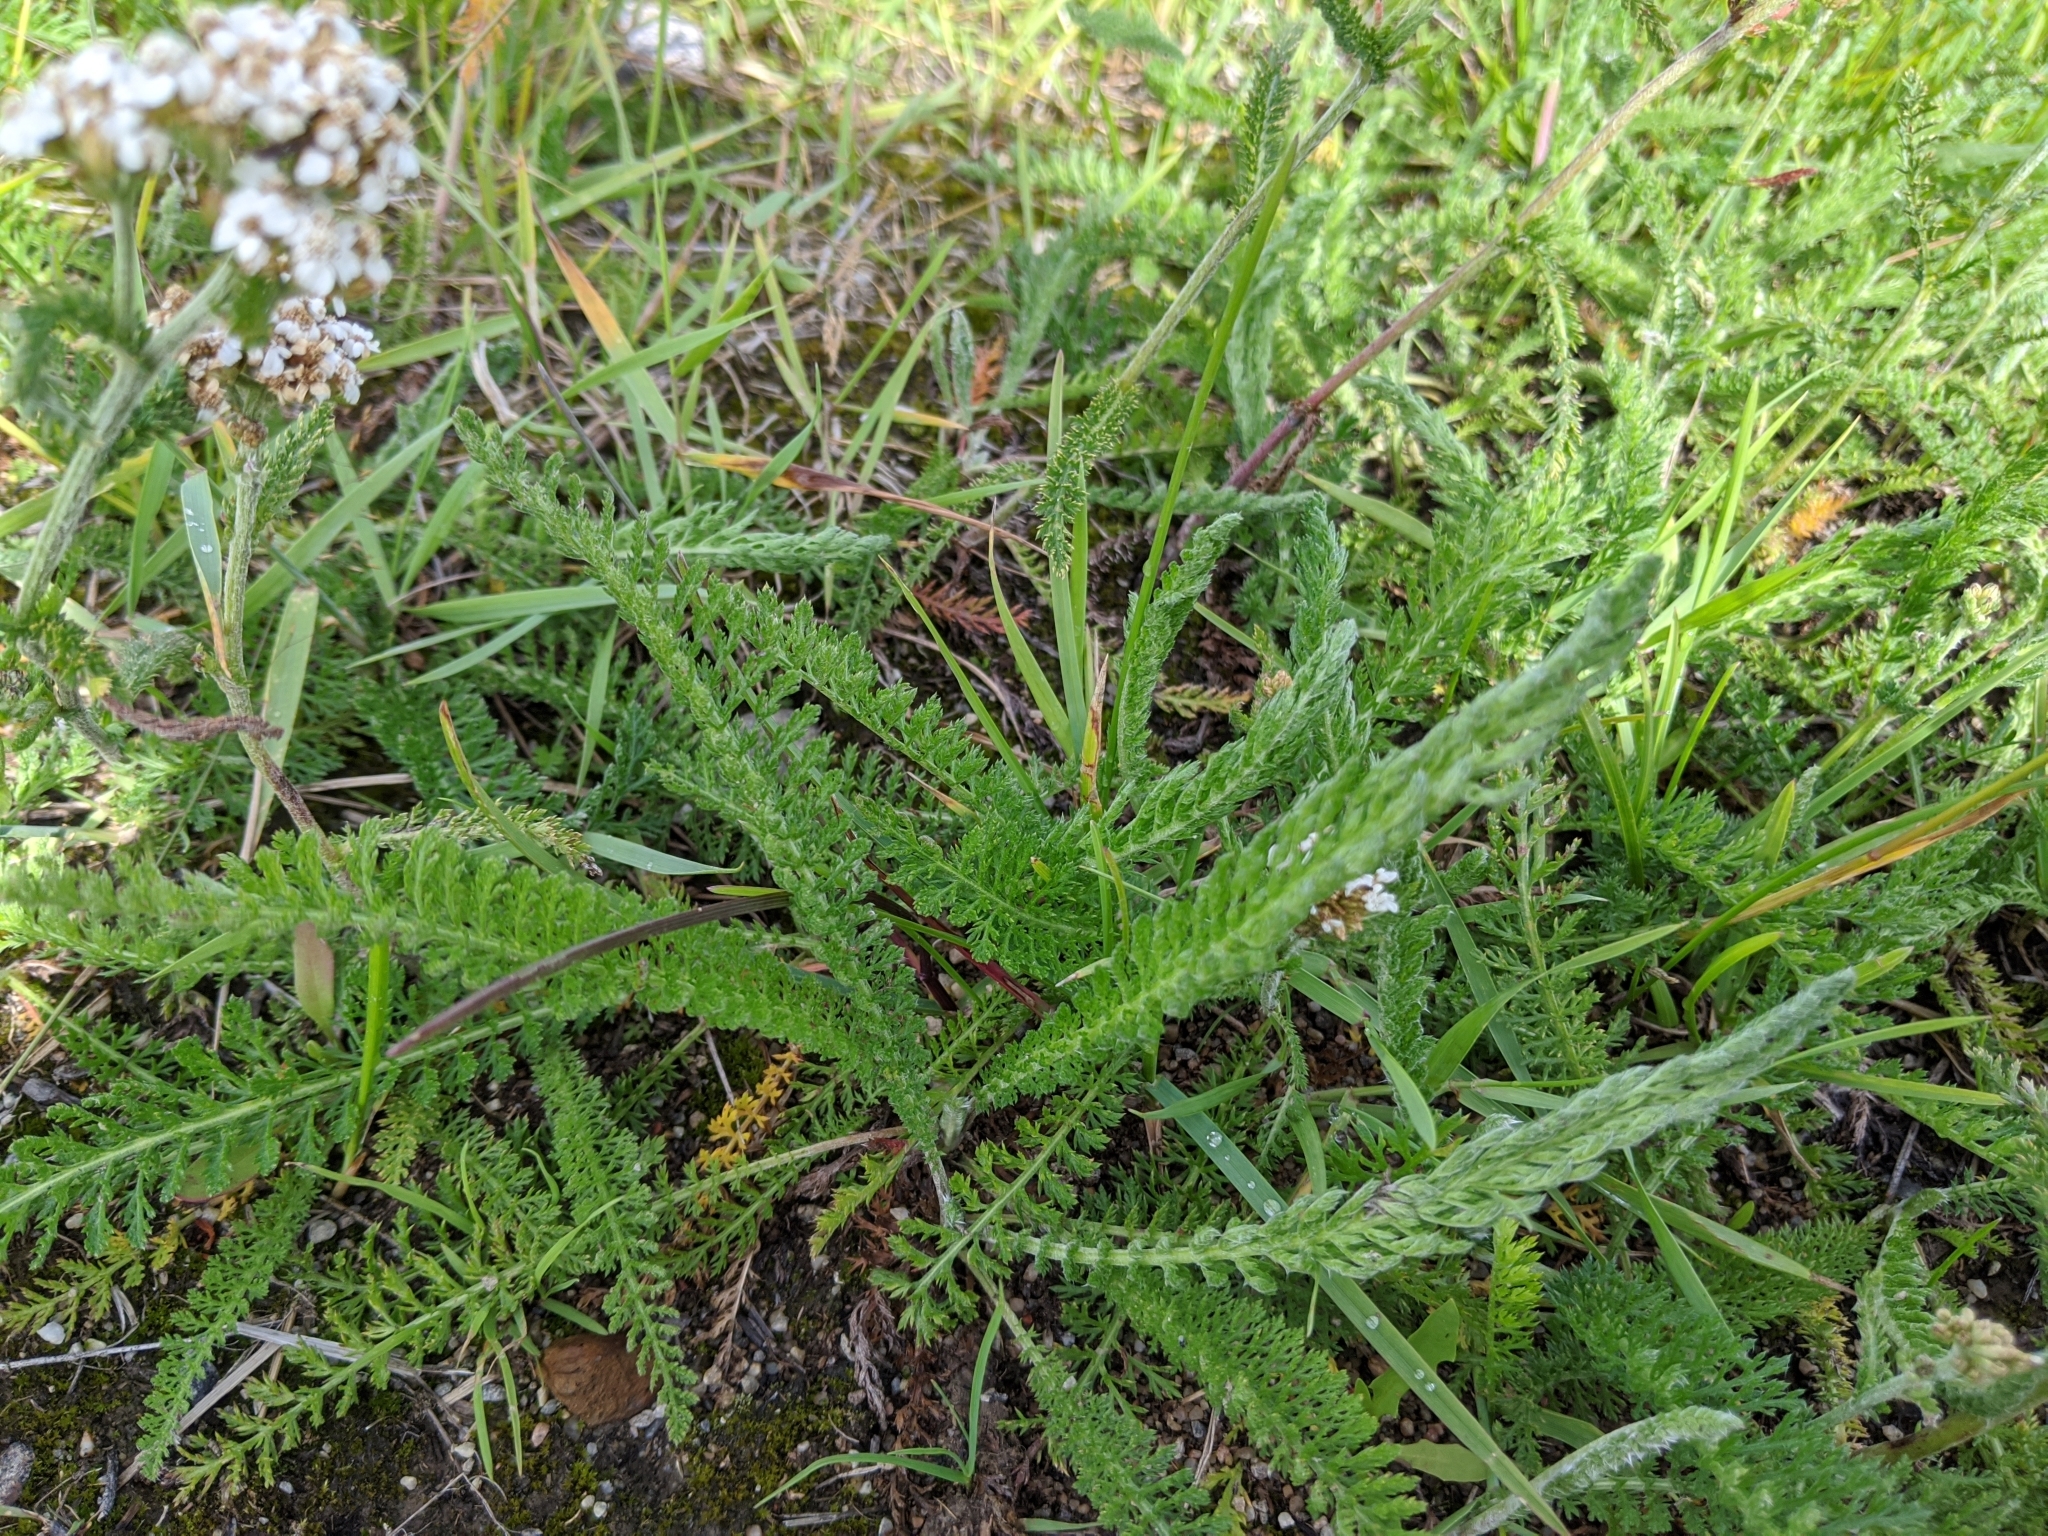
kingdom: Plantae
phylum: Tracheophyta
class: Magnoliopsida
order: Asterales
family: Asteraceae
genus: Achillea
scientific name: Achillea millefolium
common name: Yarrow
